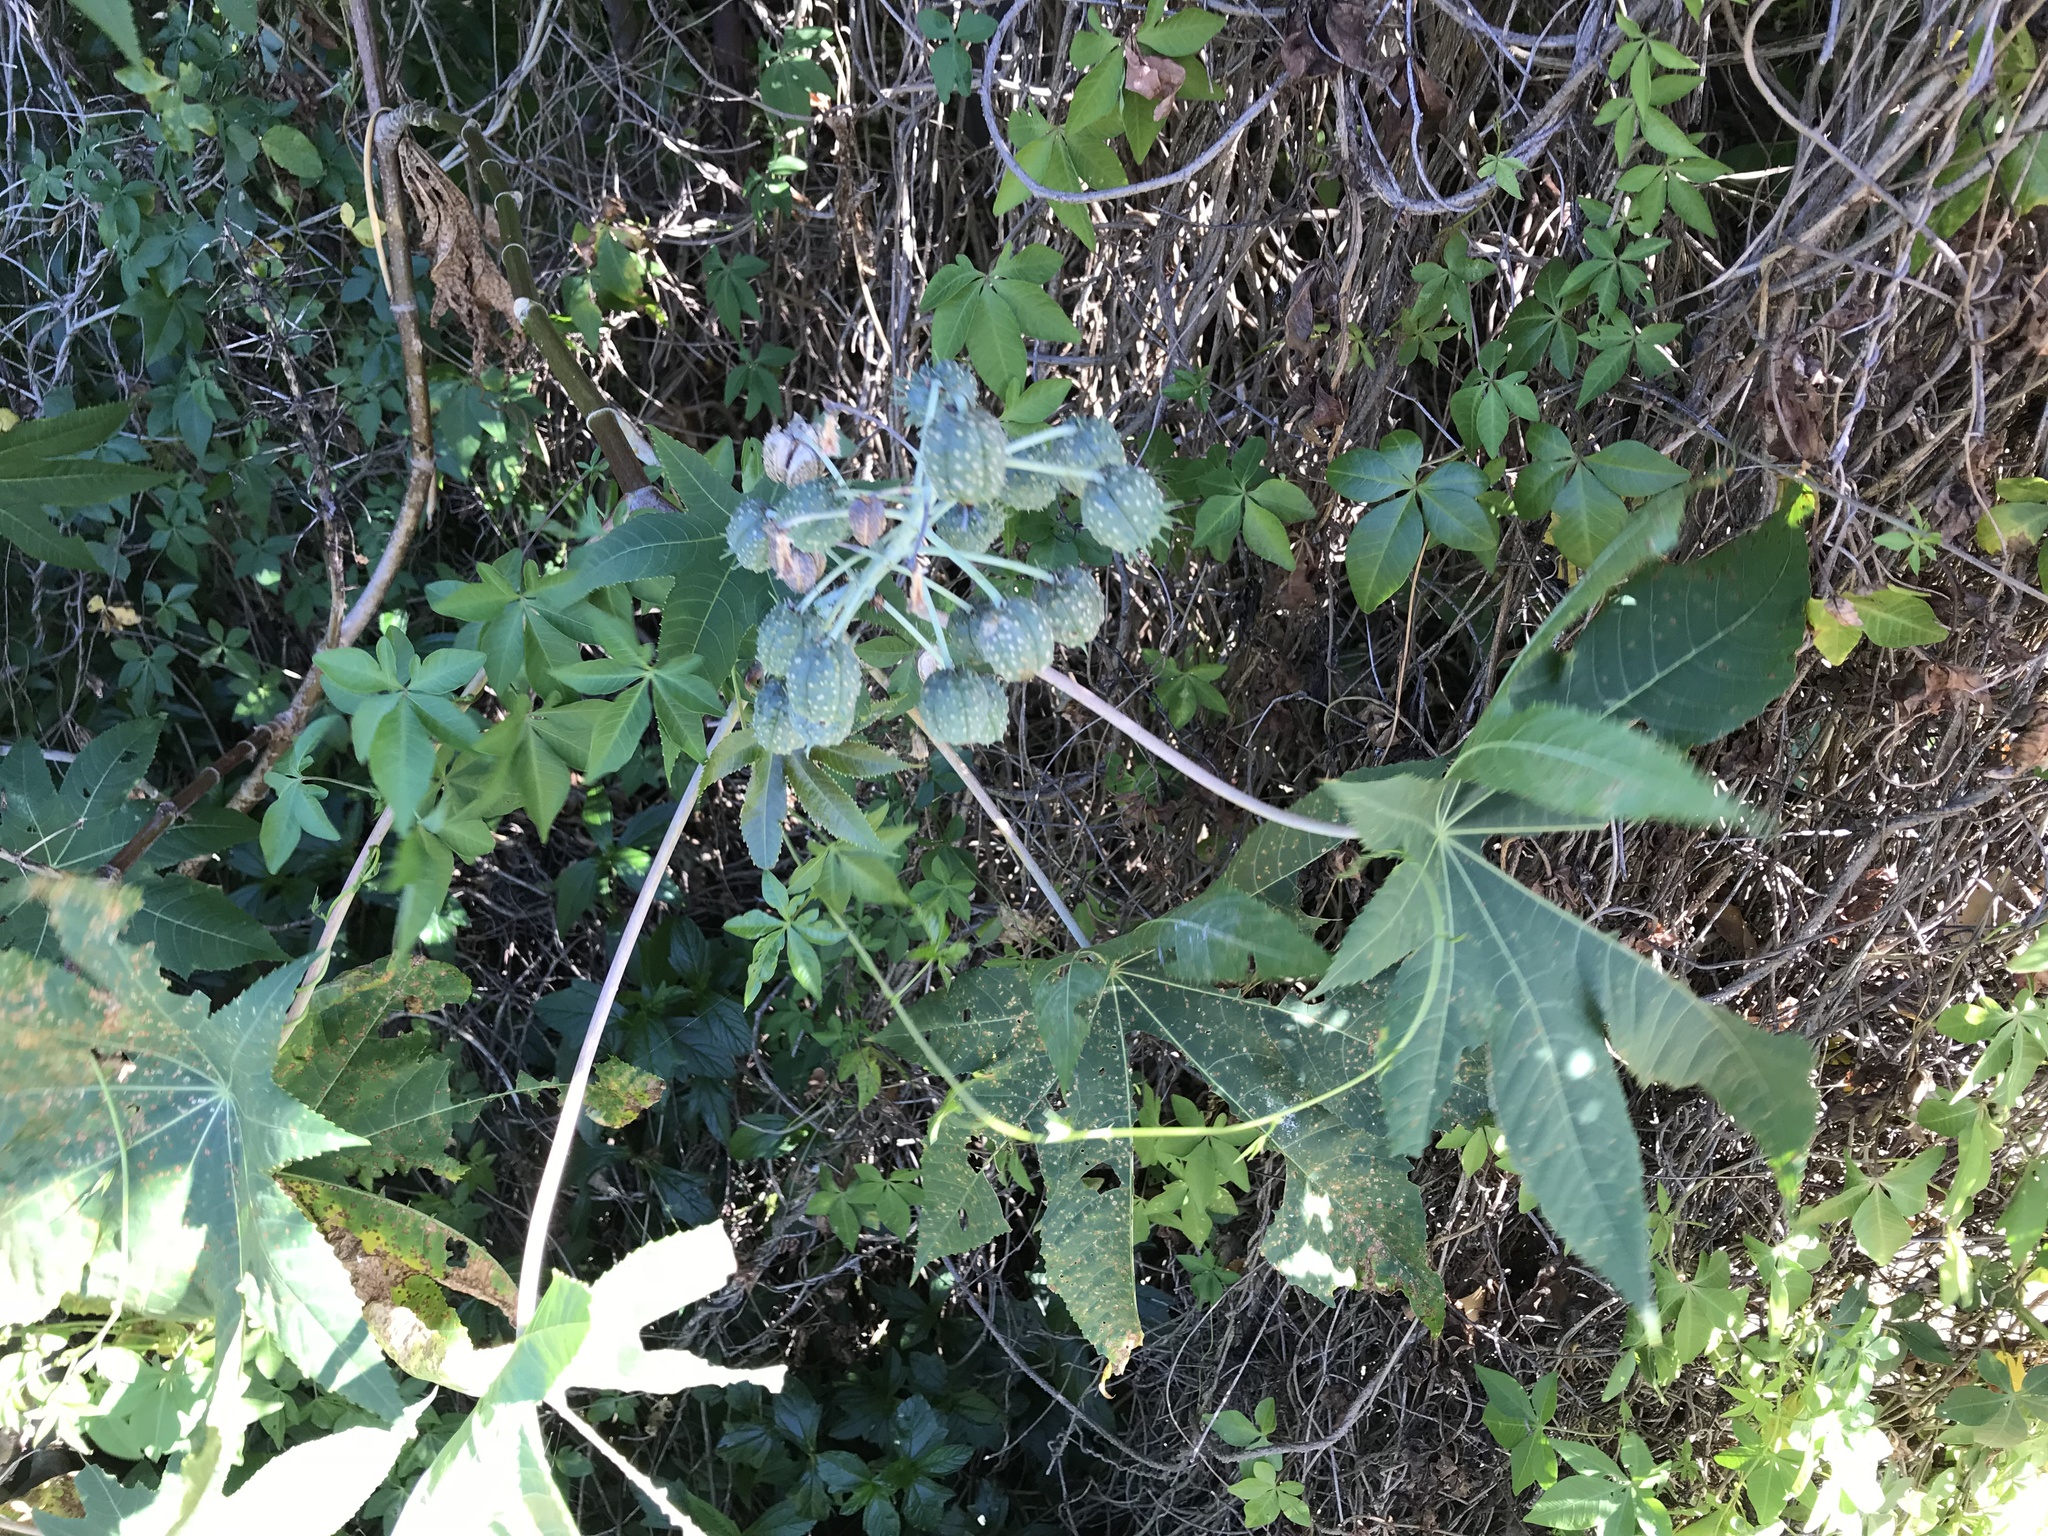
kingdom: Plantae
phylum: Tracheophyta
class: Magnoliopsida
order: Malpighiales
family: Euphorbiaceae
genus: Ricinus
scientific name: Ricinus communis
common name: Castor-oil-plant
